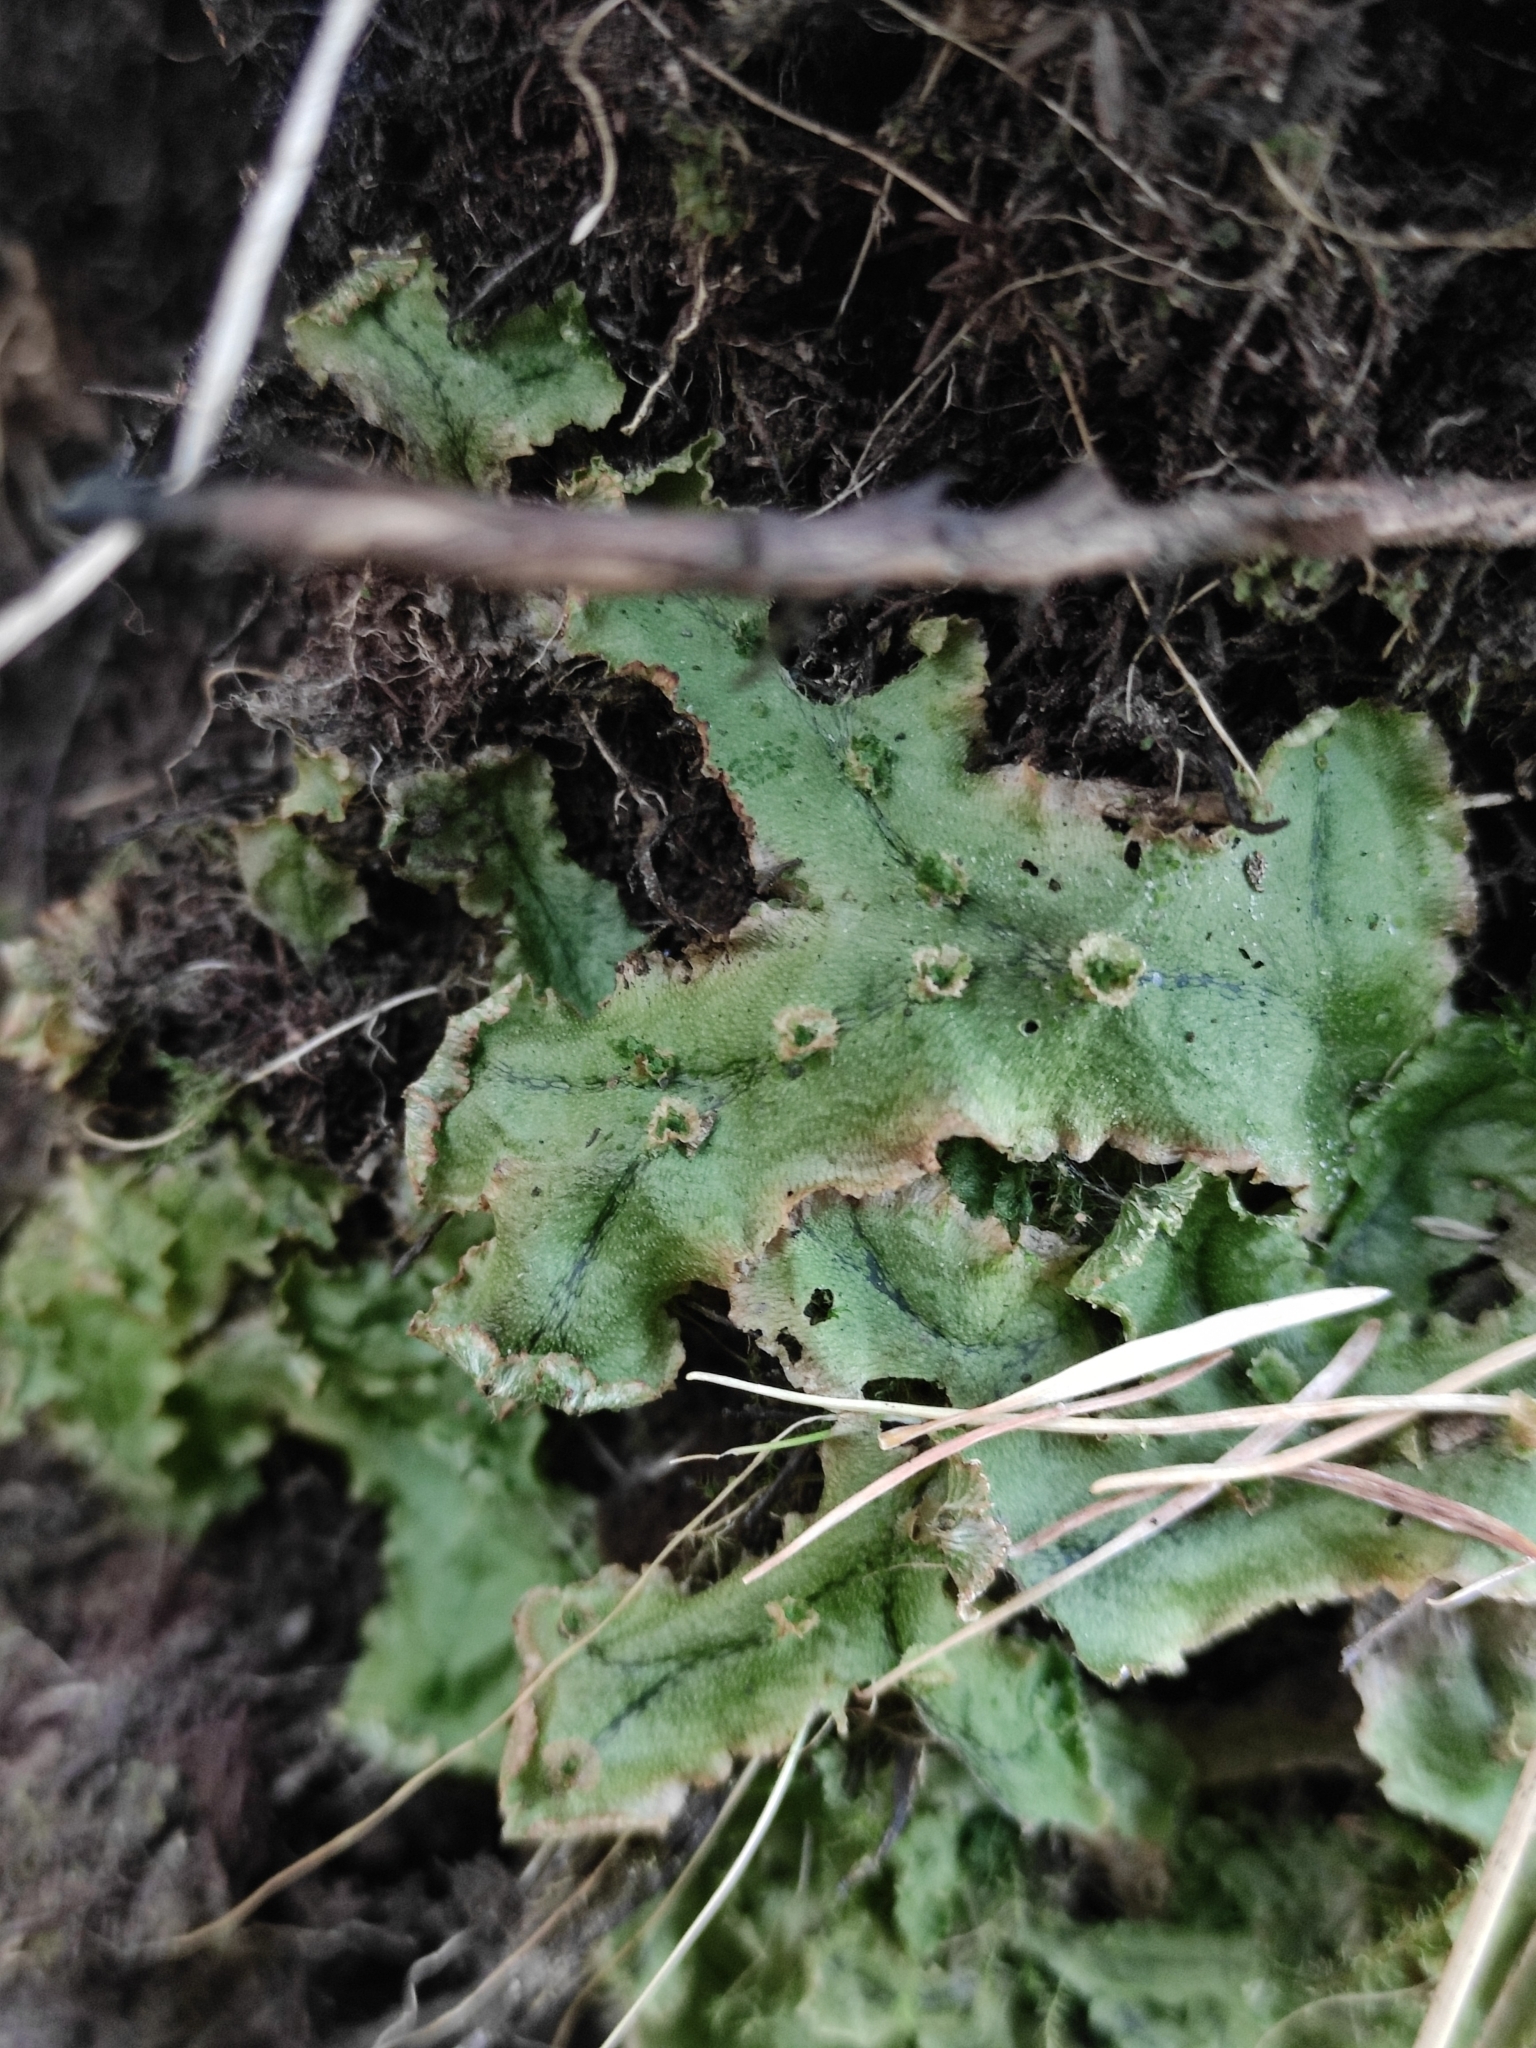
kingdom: Plantae
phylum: Marchantiophyta
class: Marchantiopsida
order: Marchantiales
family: Marchantiaceae
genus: Marchantia
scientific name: Marchantia polymorpha
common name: Common liverwort
